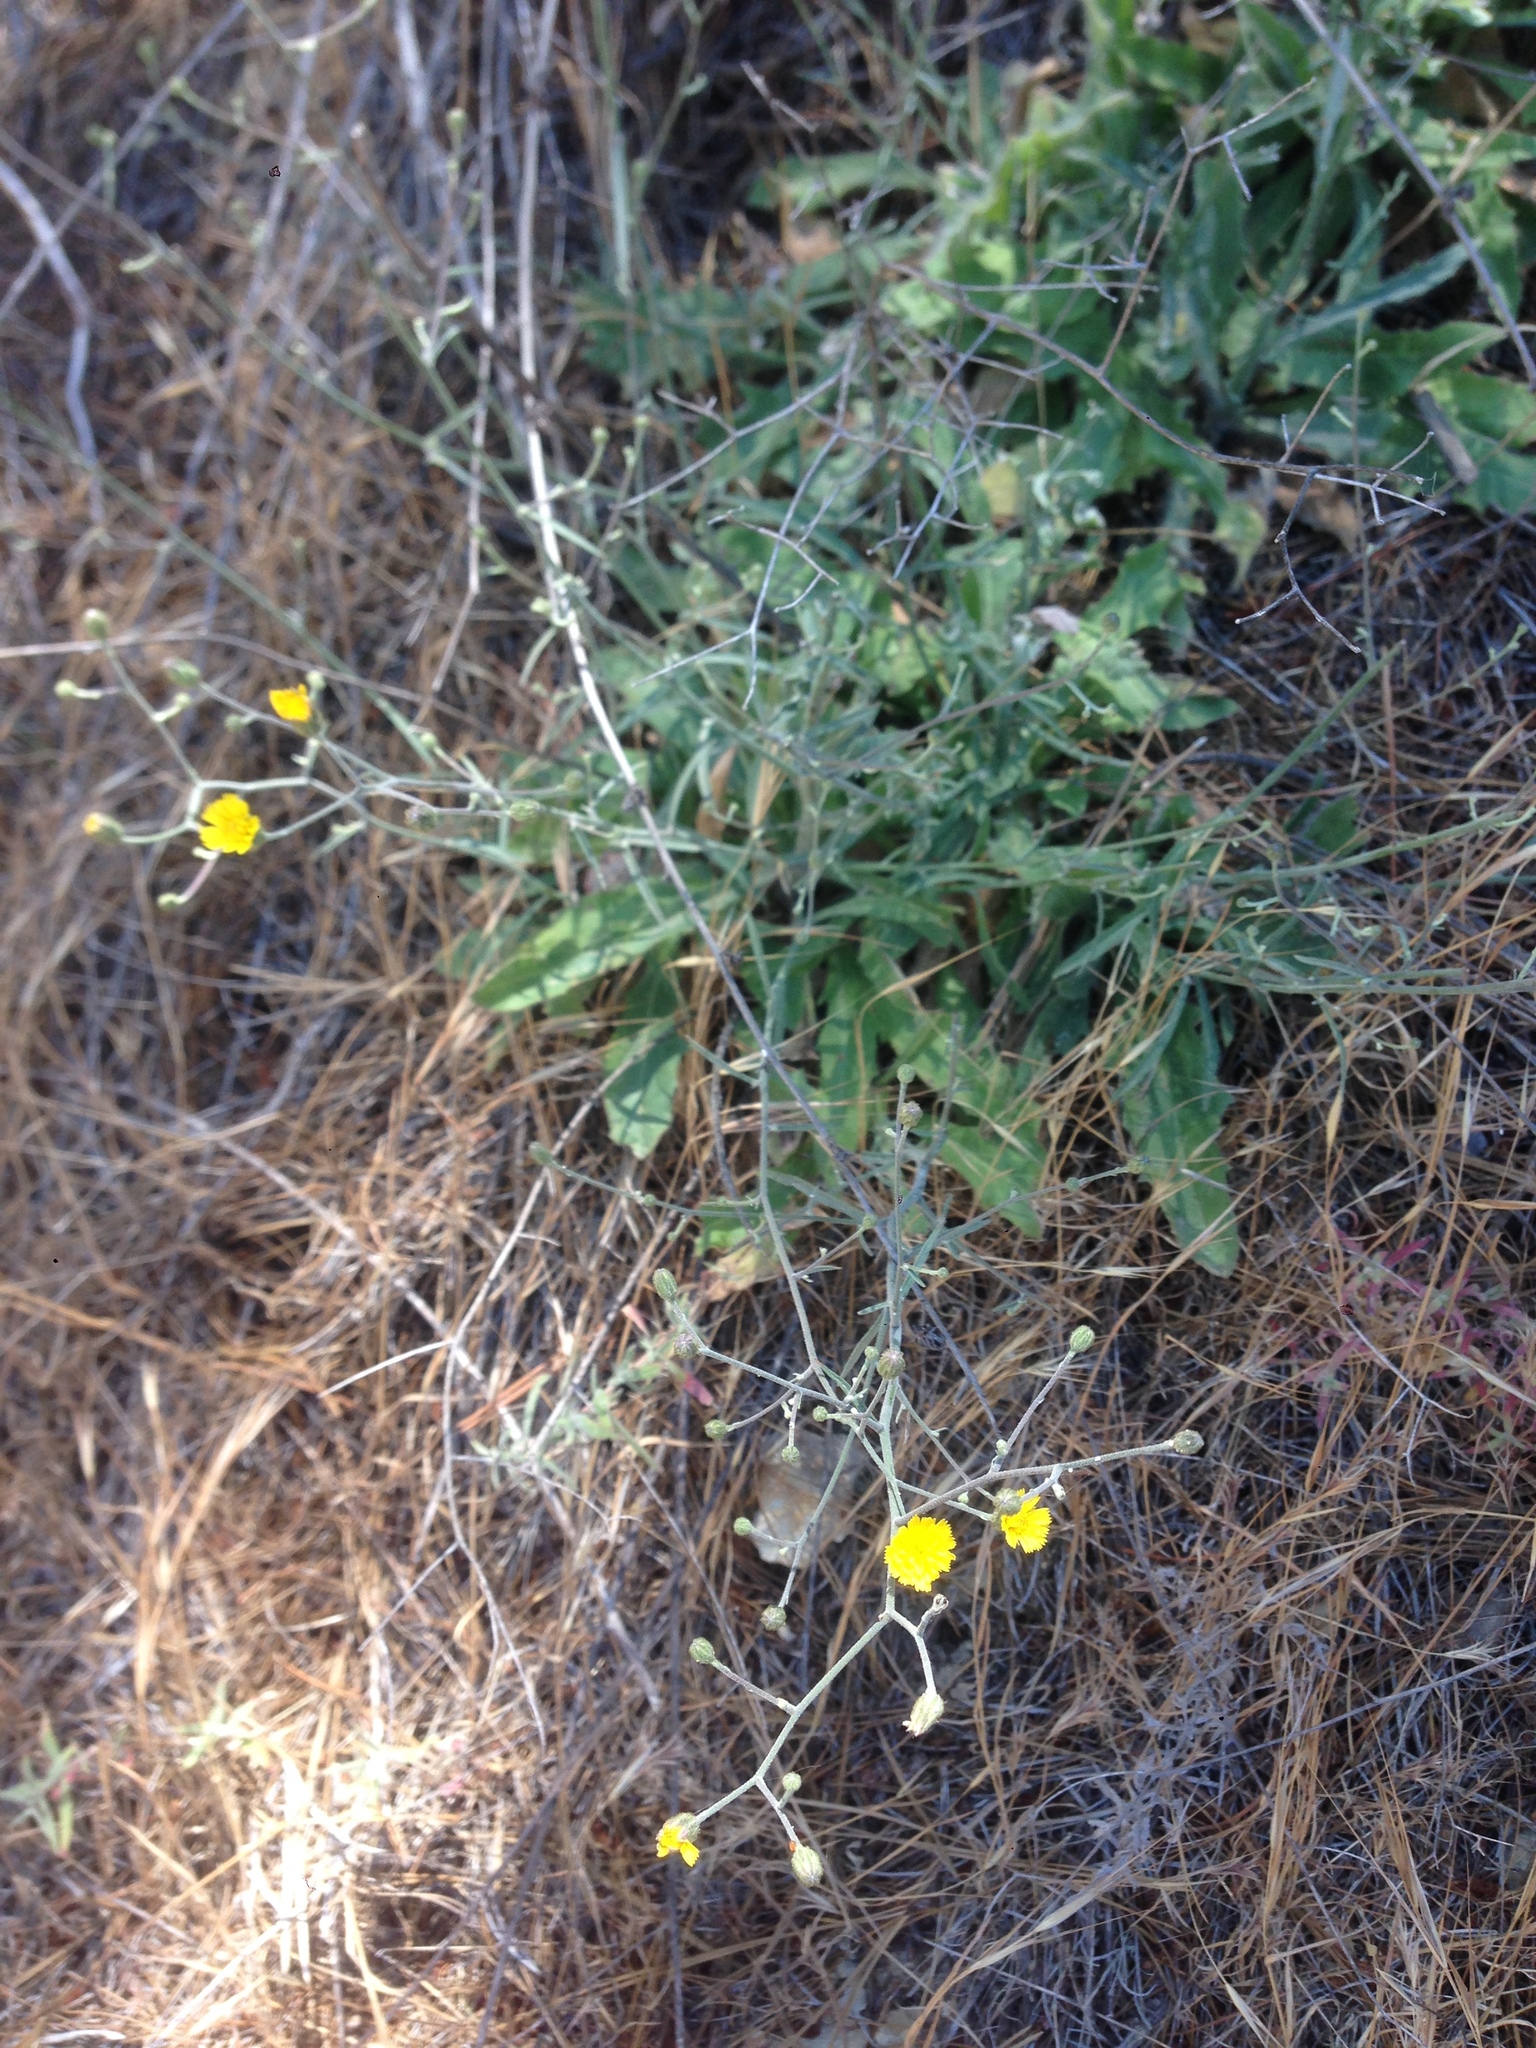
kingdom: Plantae
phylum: Tracheophyta
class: Magnoliopsida
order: Asterales
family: Asteraceae
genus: Hieracium
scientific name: Hieracium argutum
